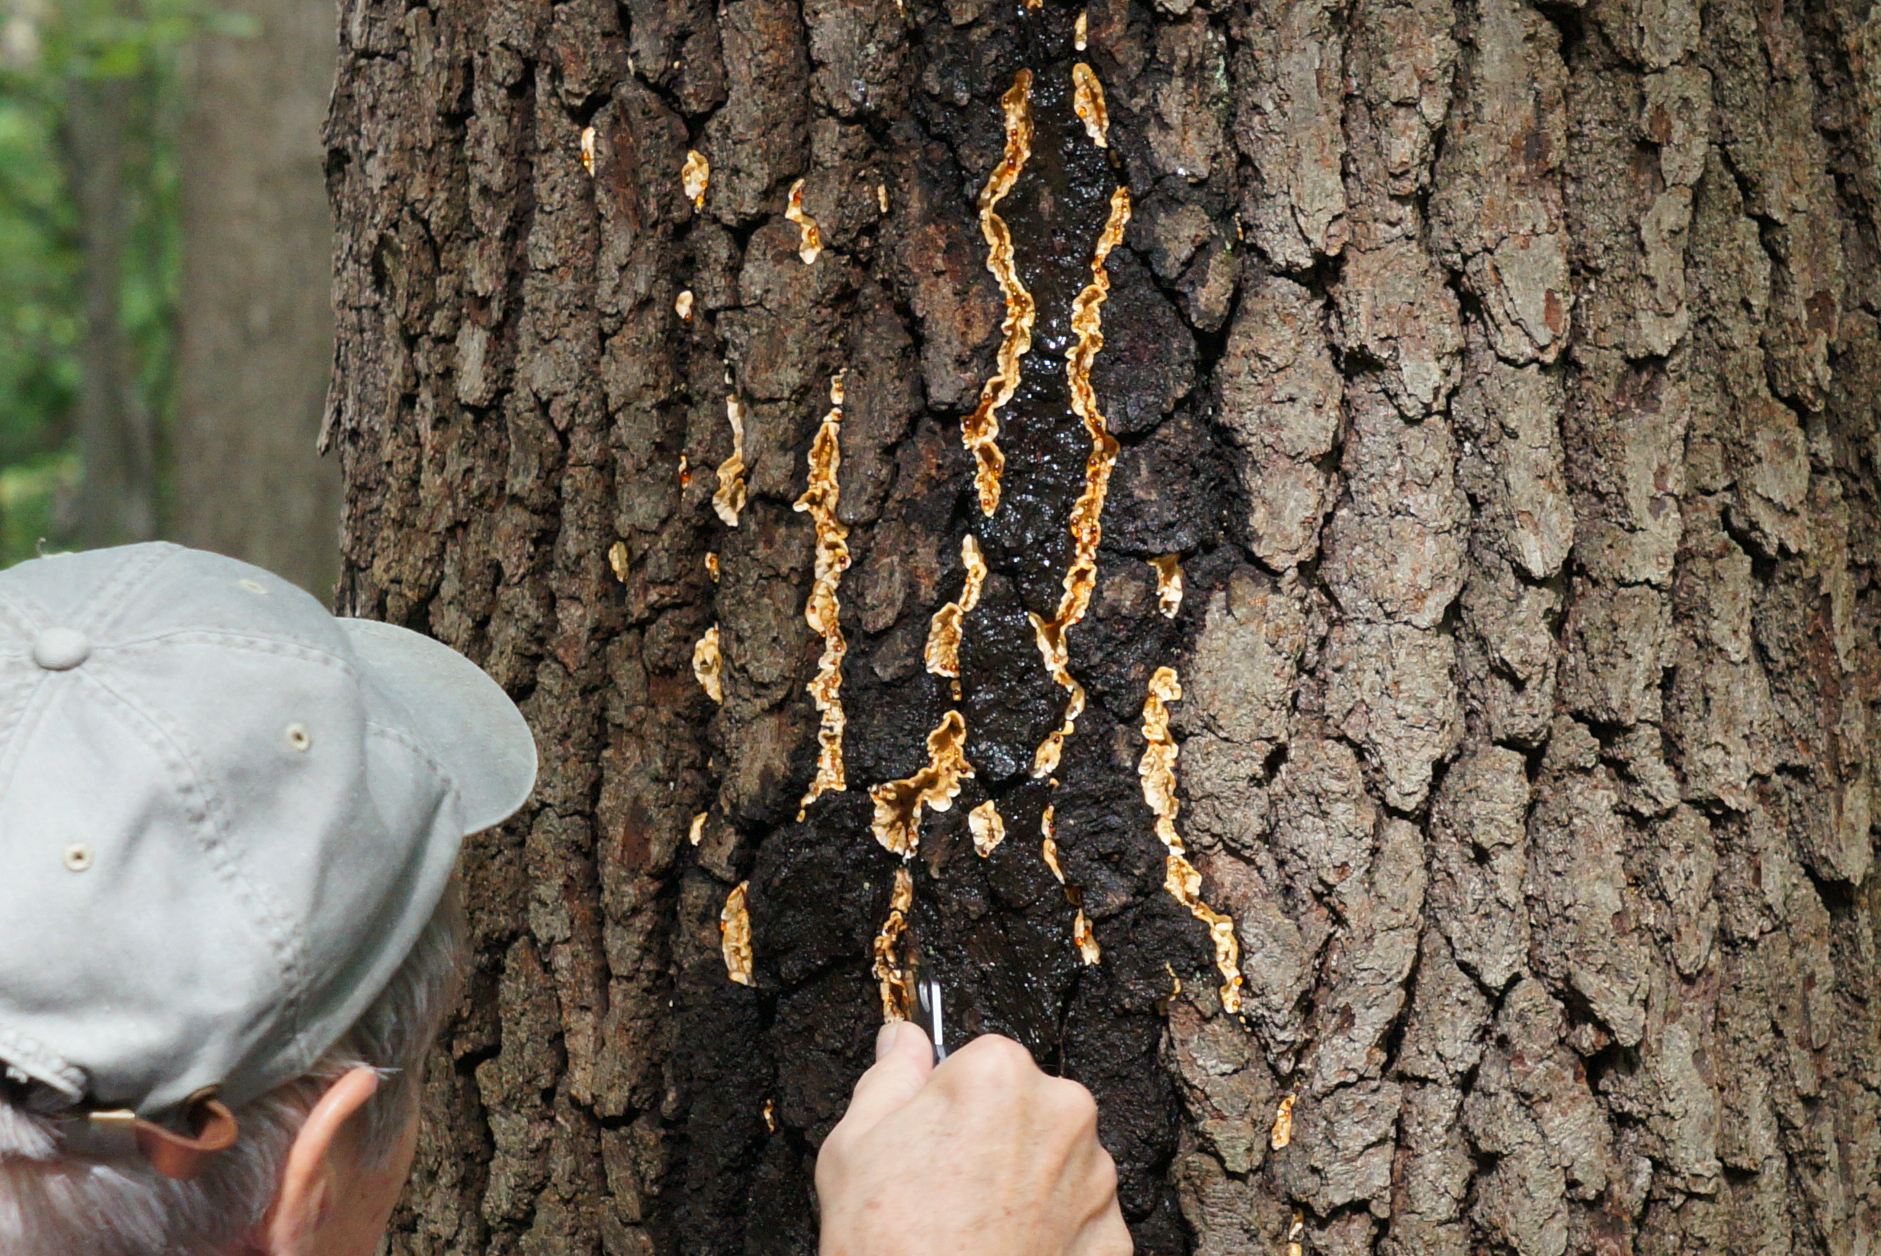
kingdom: Fungi
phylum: Basidiomycota
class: Agaricomycetes
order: Russulales
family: Stereaceae
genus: Stereum
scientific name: Stereum gausapatum
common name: Bleeding oak crust
